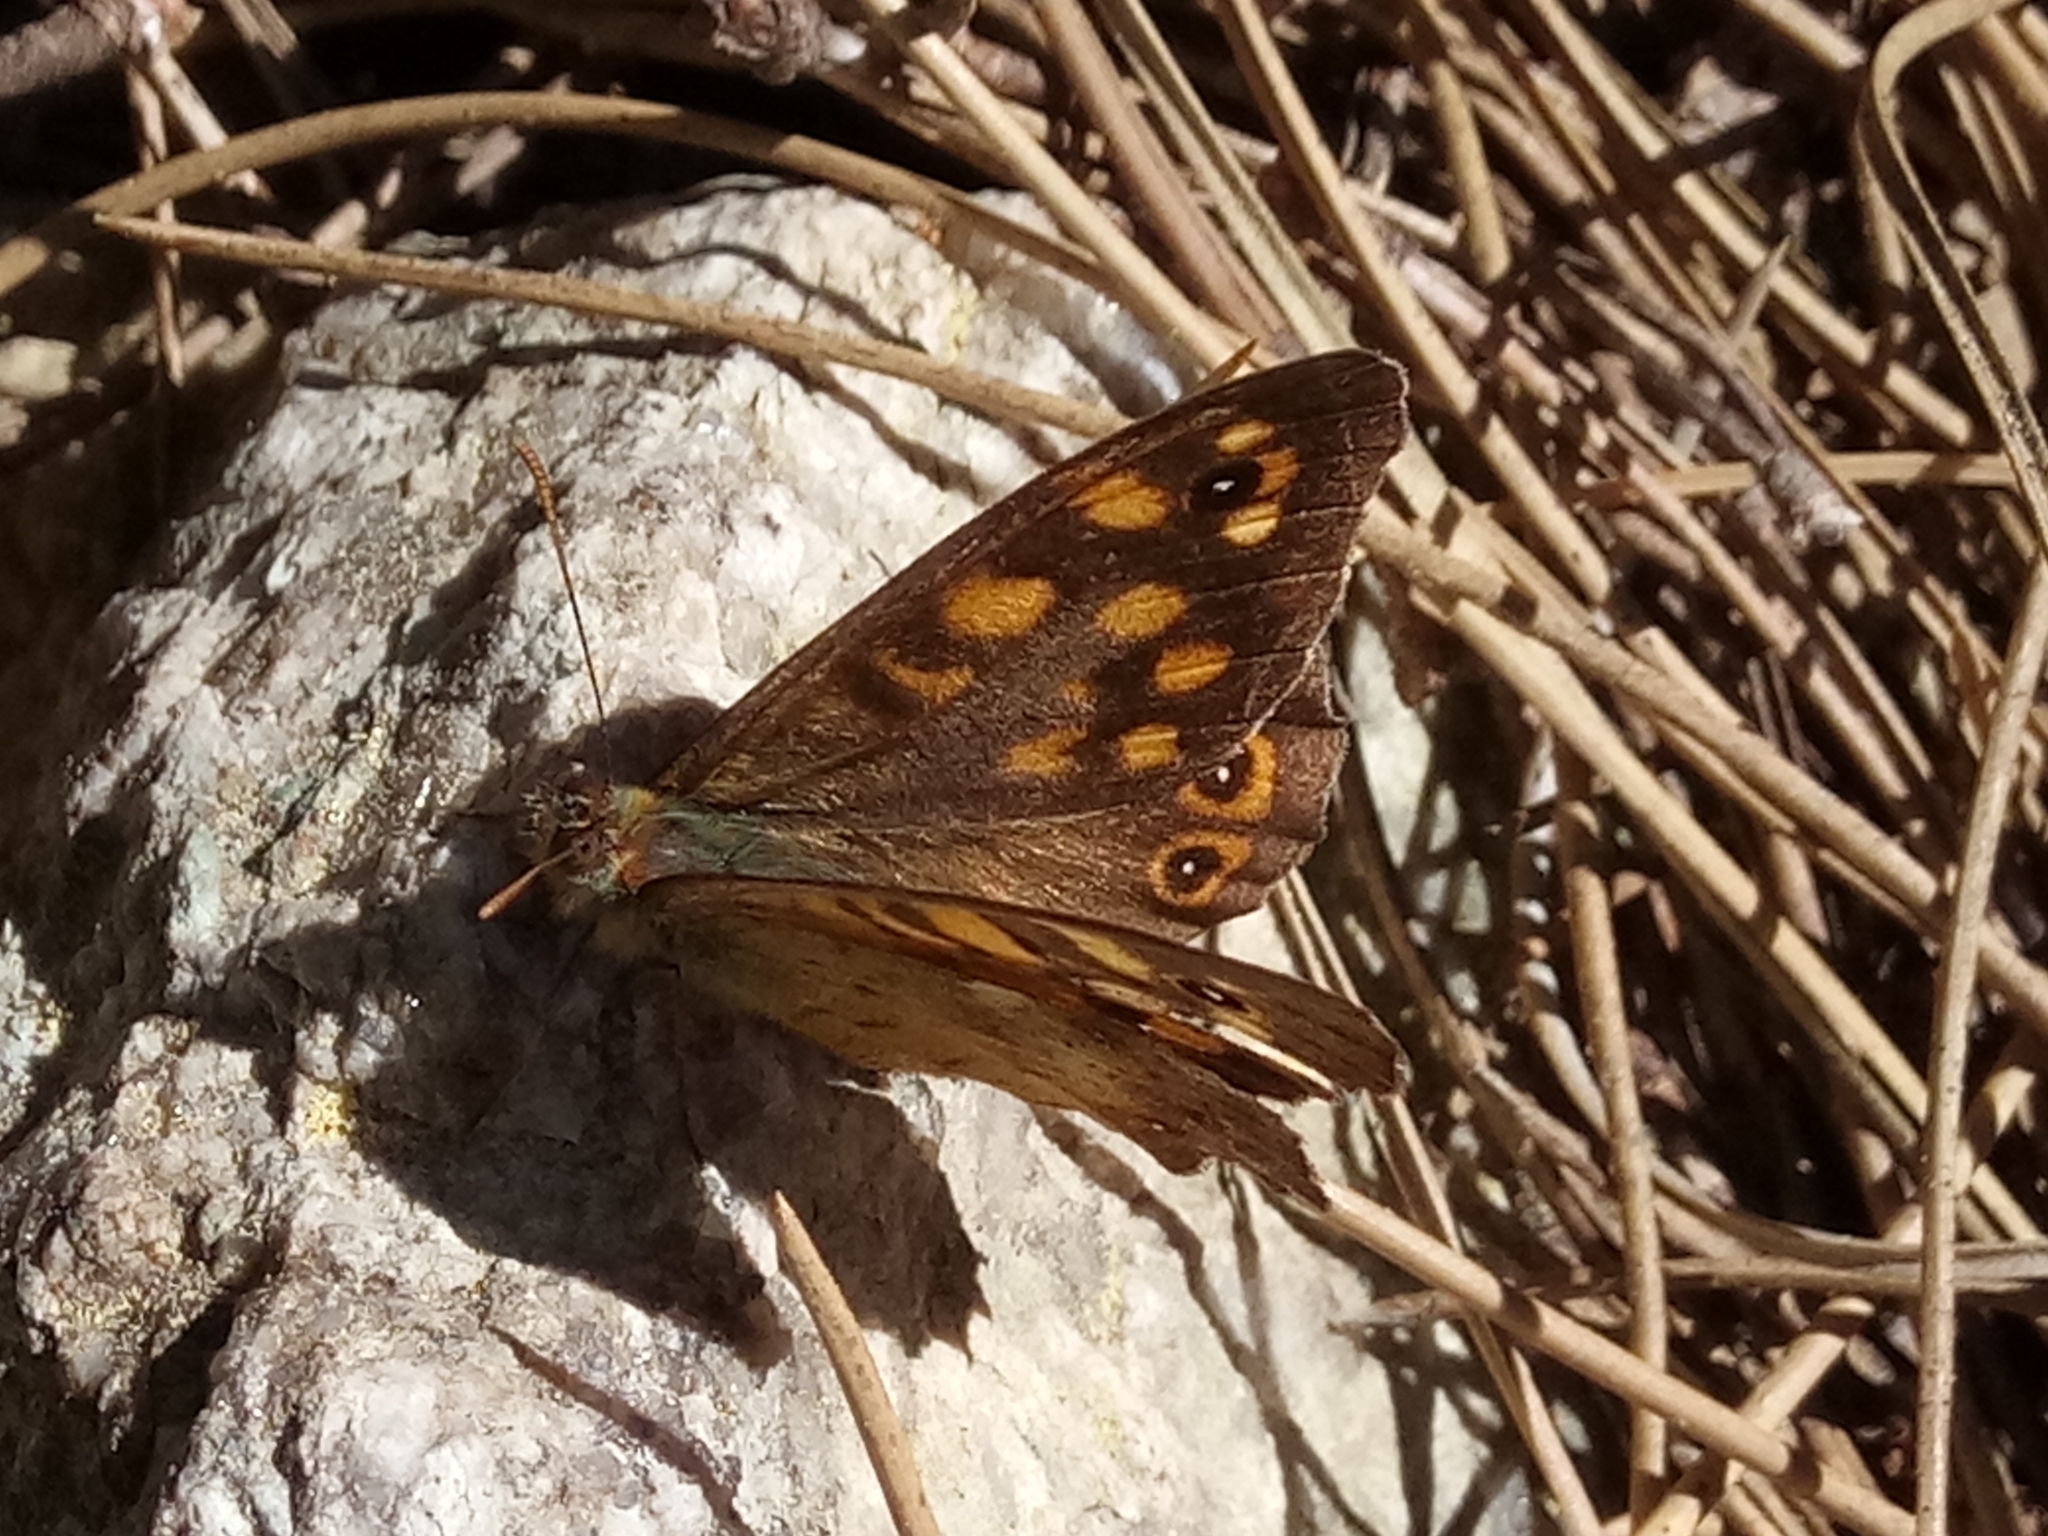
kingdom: Animalia
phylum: Arthropoda
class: Insecta
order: Lepidoptera
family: Nymphalidae
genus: Pararge
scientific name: Pararge aegeria
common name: Speckled wood
